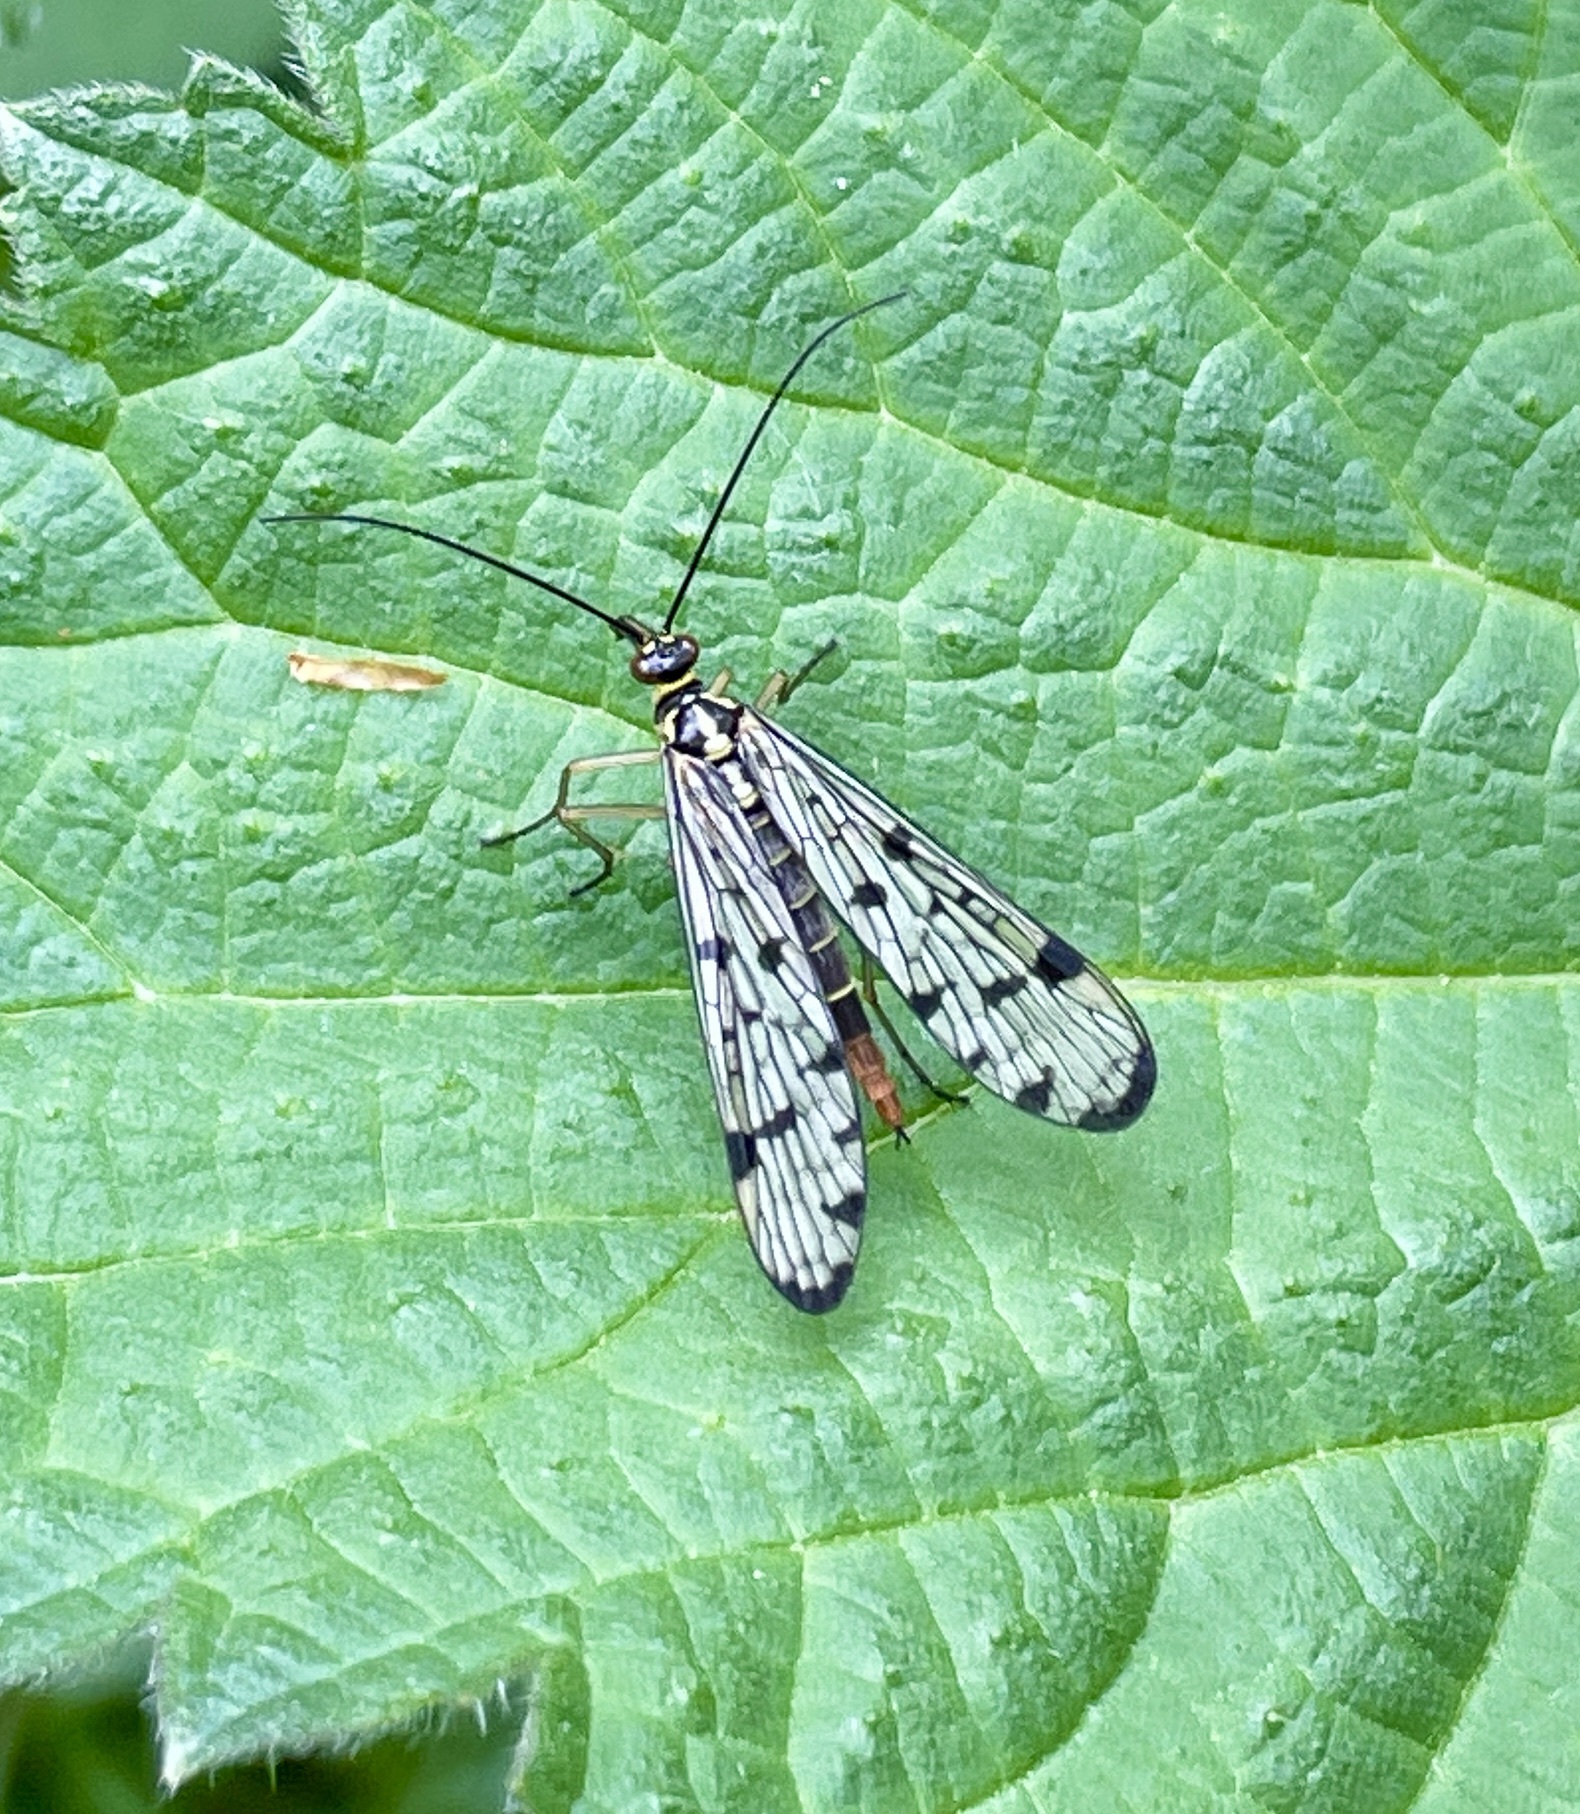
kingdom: Animalia
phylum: Arthropoda
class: Insecta
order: Mecoptera
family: Panorpidae
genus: Panorpa
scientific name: Panorpa germanica
